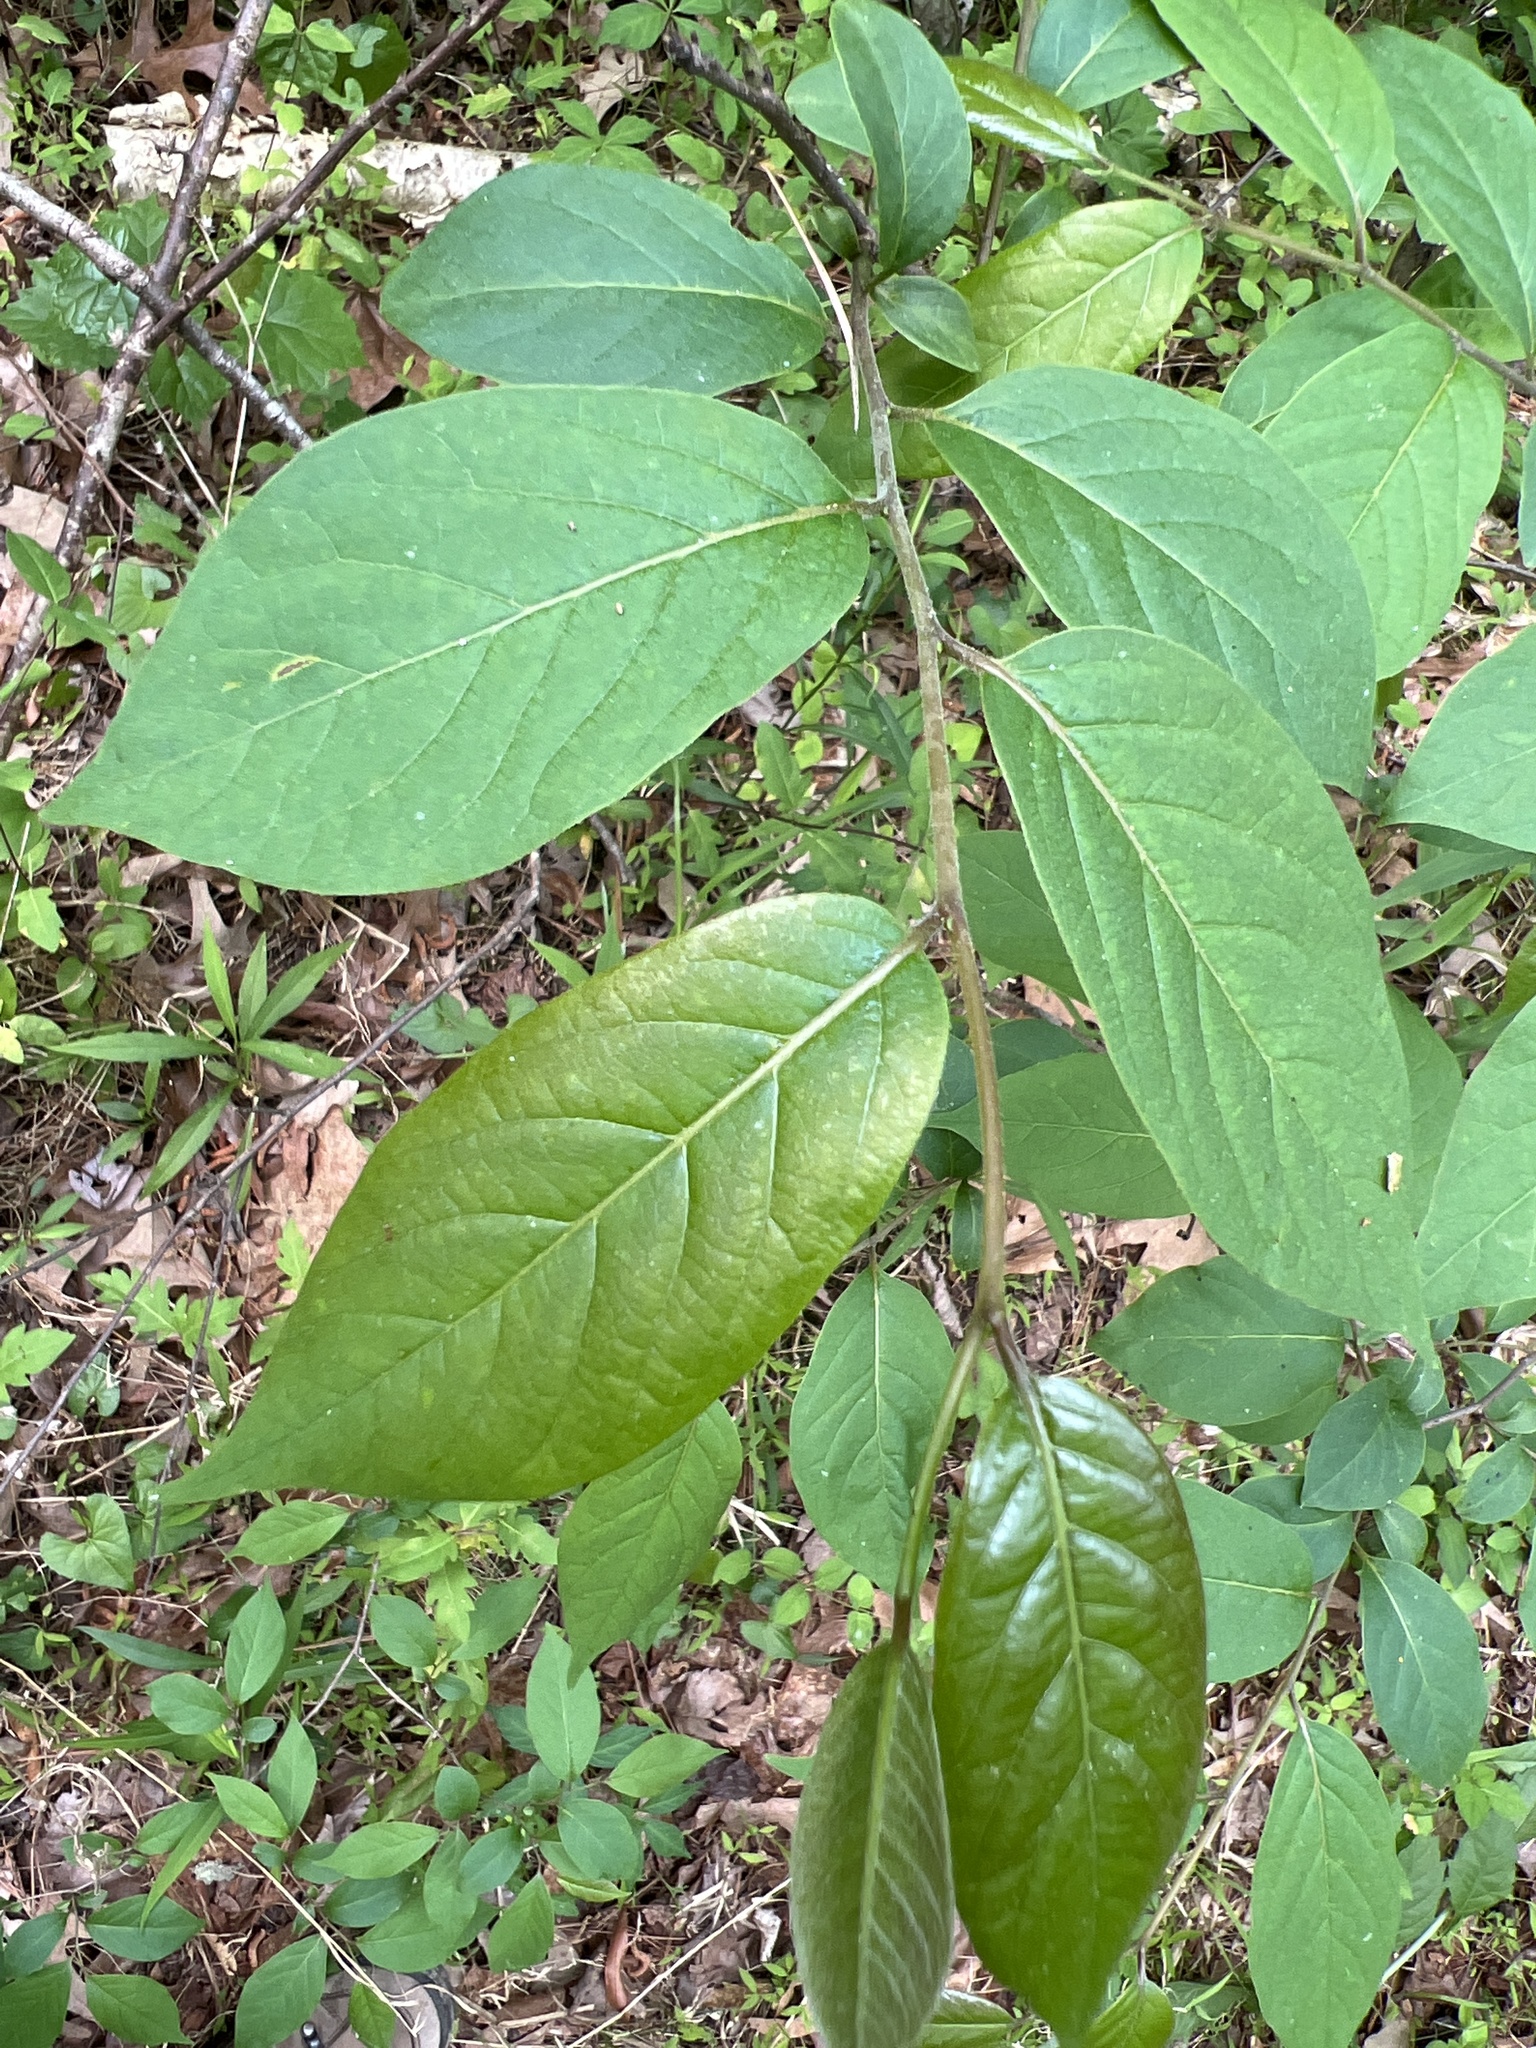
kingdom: Plantae
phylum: Tracheophyta
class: Magnoliopsida
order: Ericales
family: Ebenaceae
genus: Diospyros
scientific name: Diospyros virginiana
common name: Persimmon
